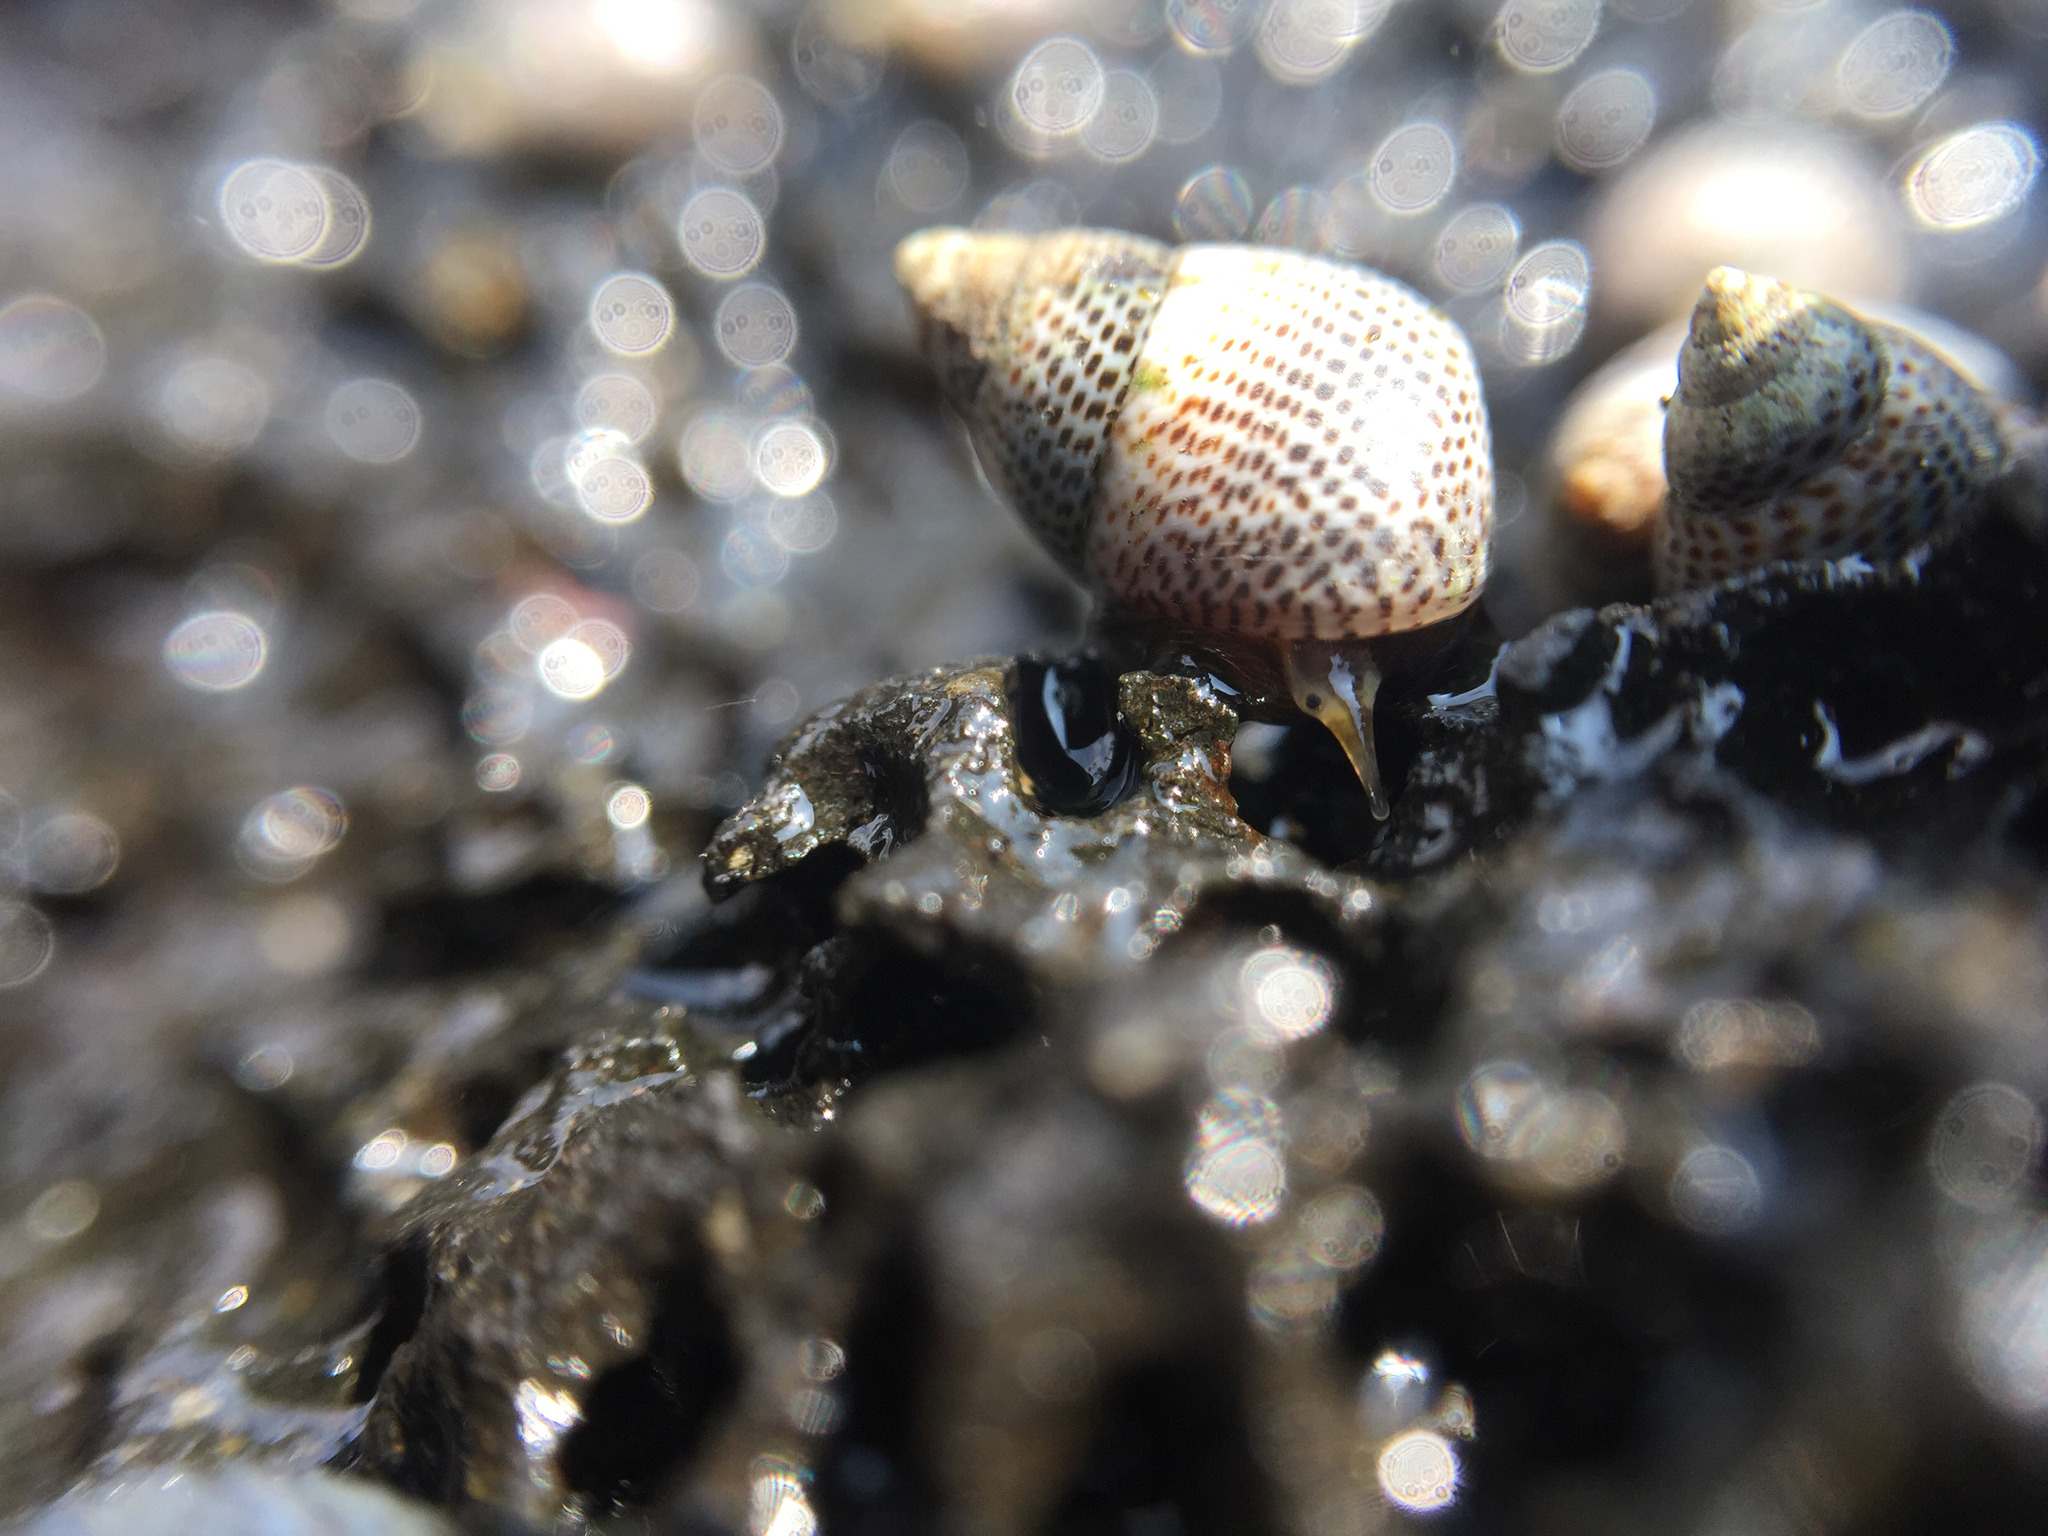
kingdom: Animalia
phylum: Mollusca
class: Gastropoda
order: Littorinimorpha
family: Littorinidae
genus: Littoraria
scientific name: Littoraria pintado
